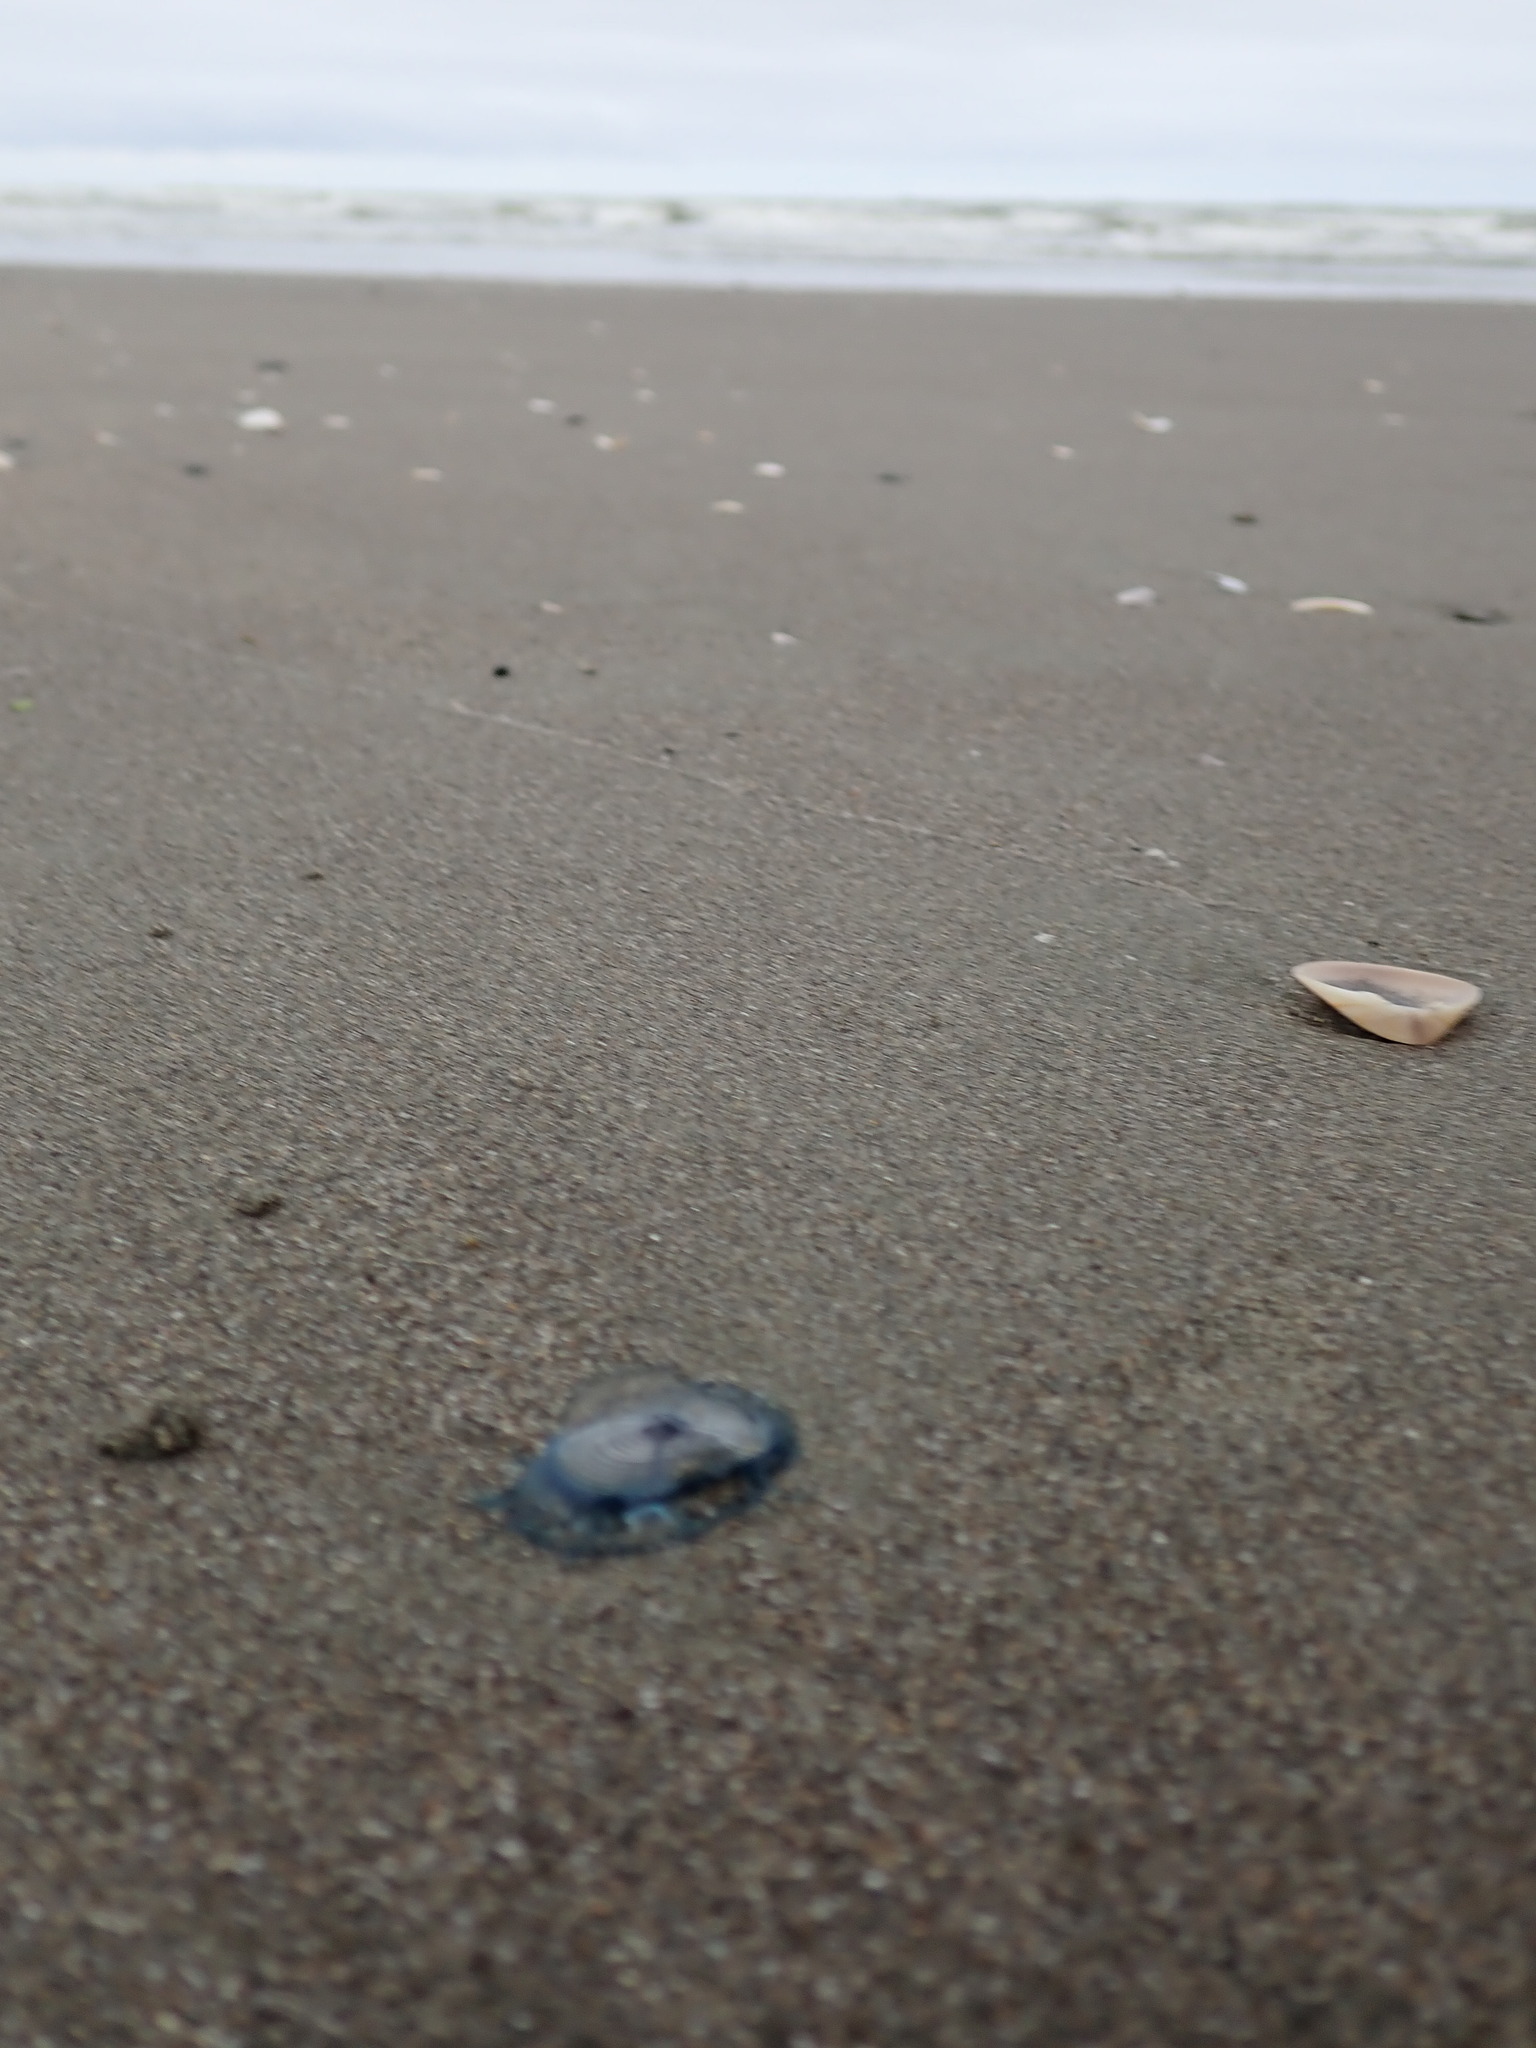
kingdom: Animalia
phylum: Cnidaria
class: Hydrozoa
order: Anthoathecata
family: Porpitidae
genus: Velella
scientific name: Velella velella
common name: By-the-wind-sailor
